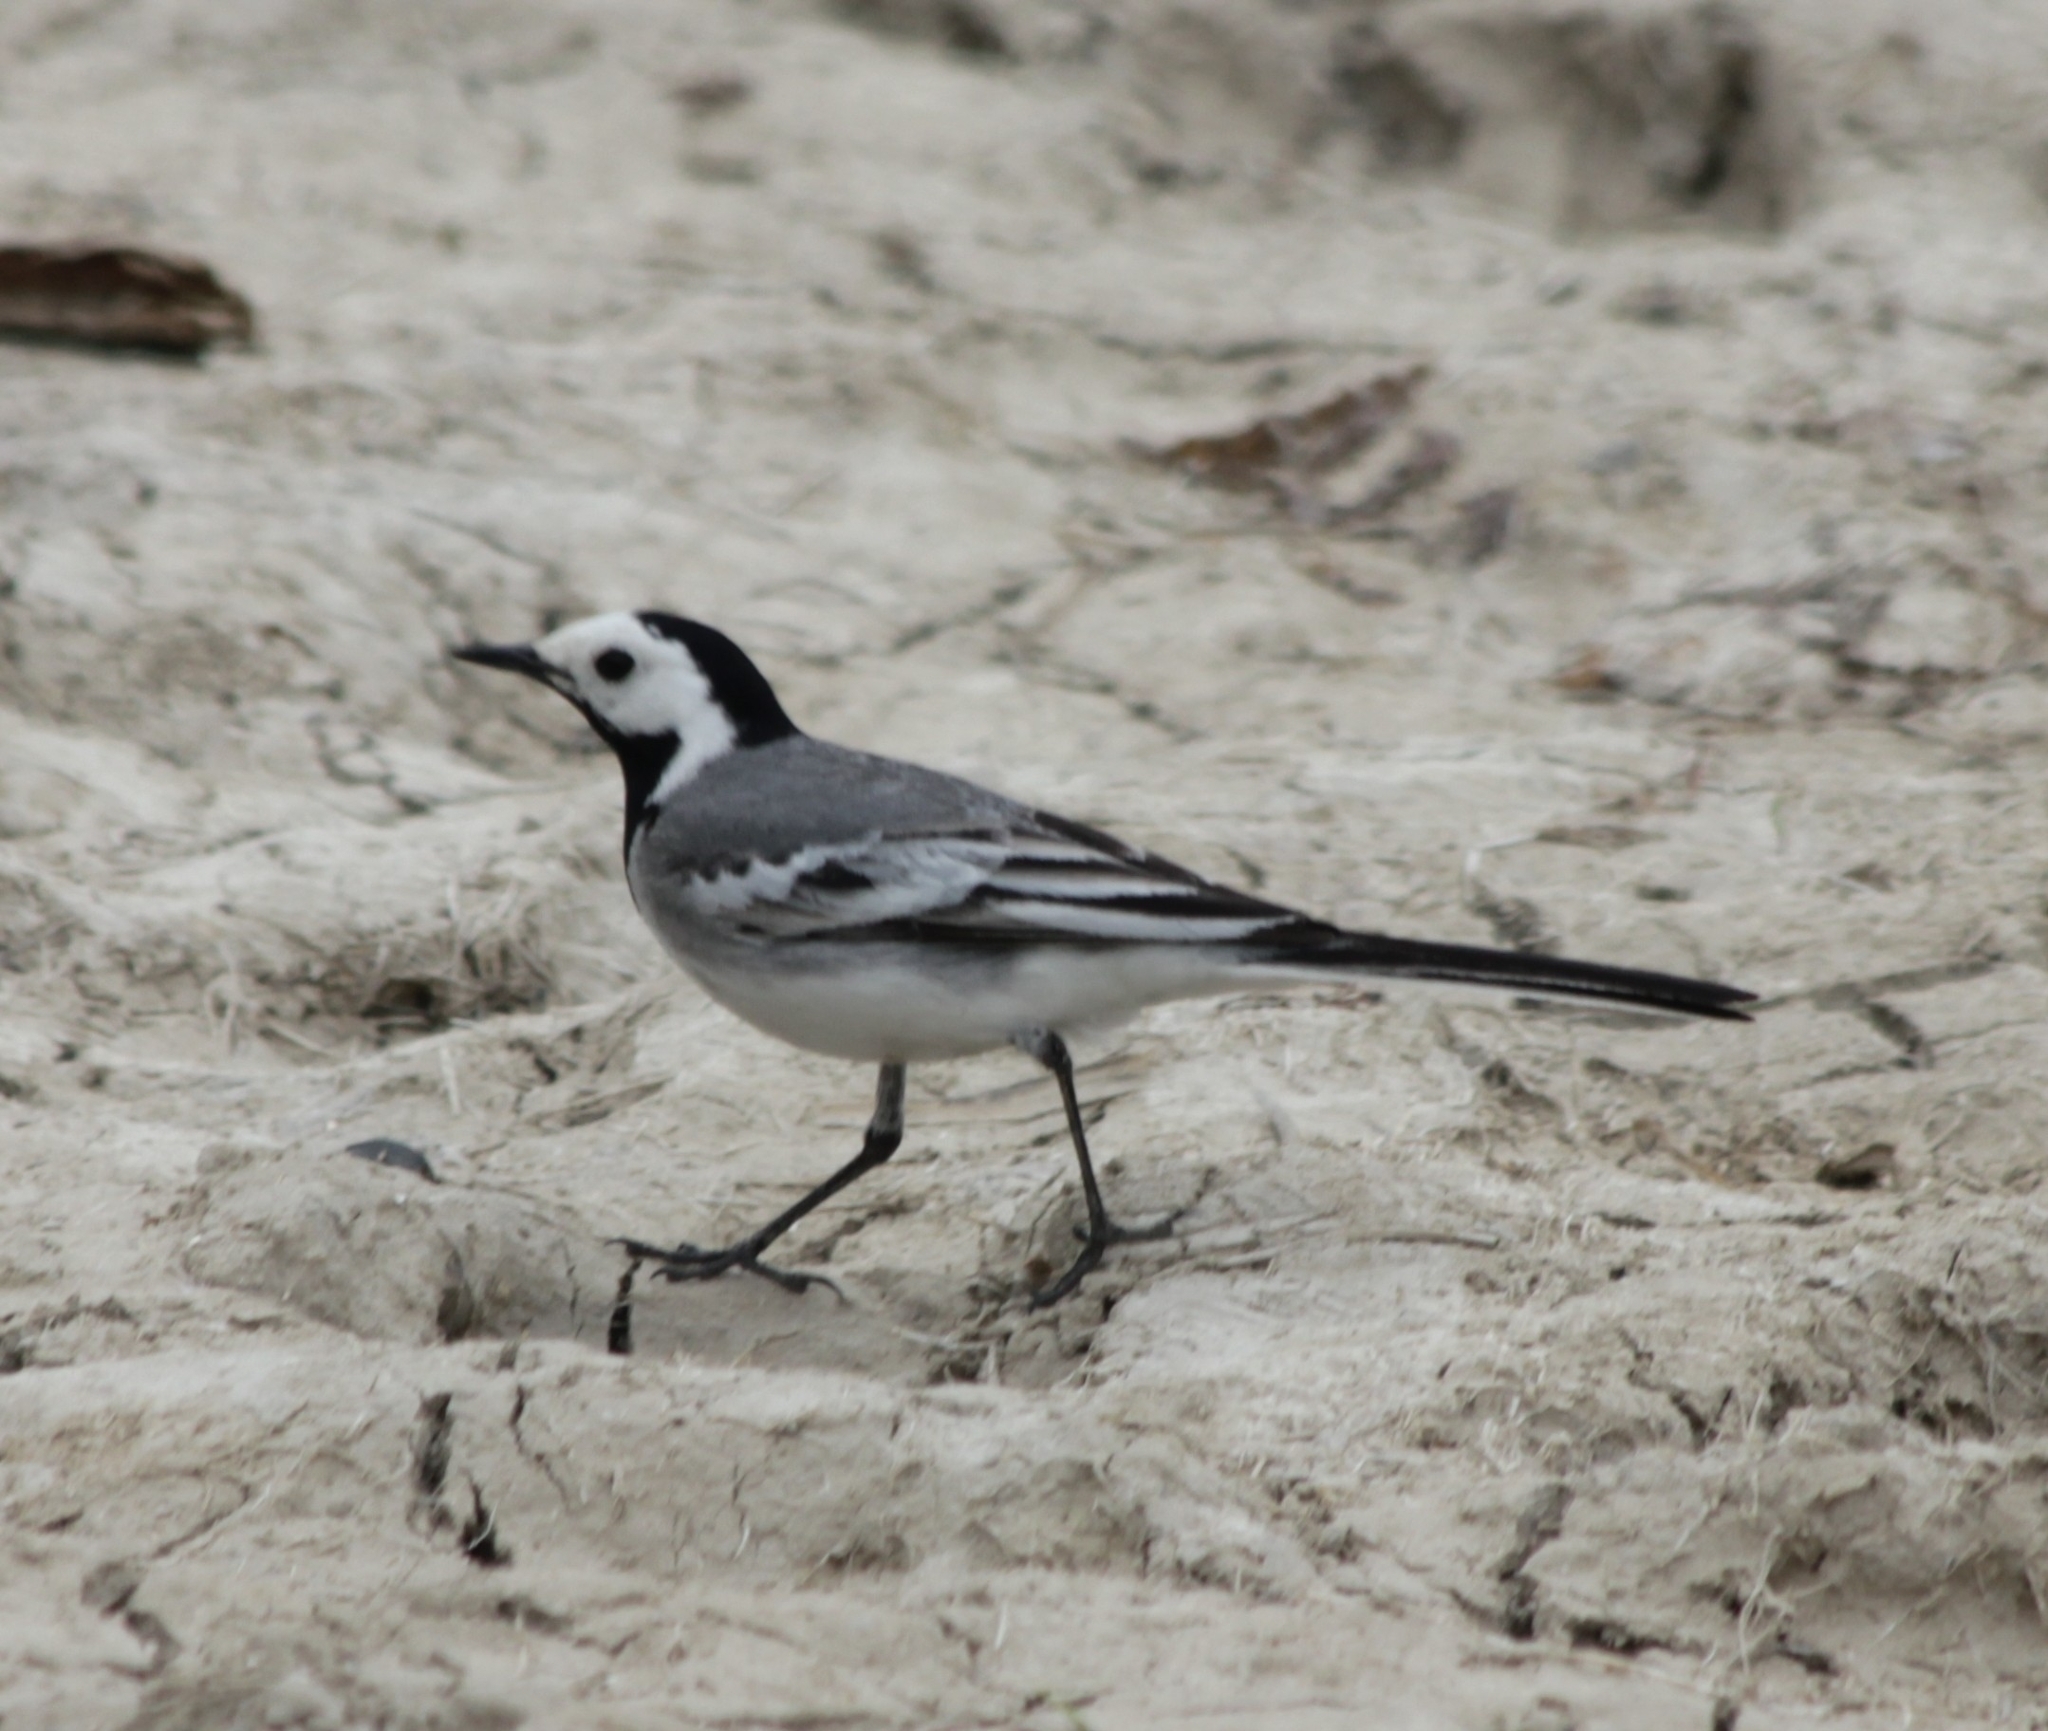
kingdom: Animalia
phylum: Chordata
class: Aves
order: Passeriformes
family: Motacillidae
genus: Motacilla
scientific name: Motacilla alba
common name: White wagtail
